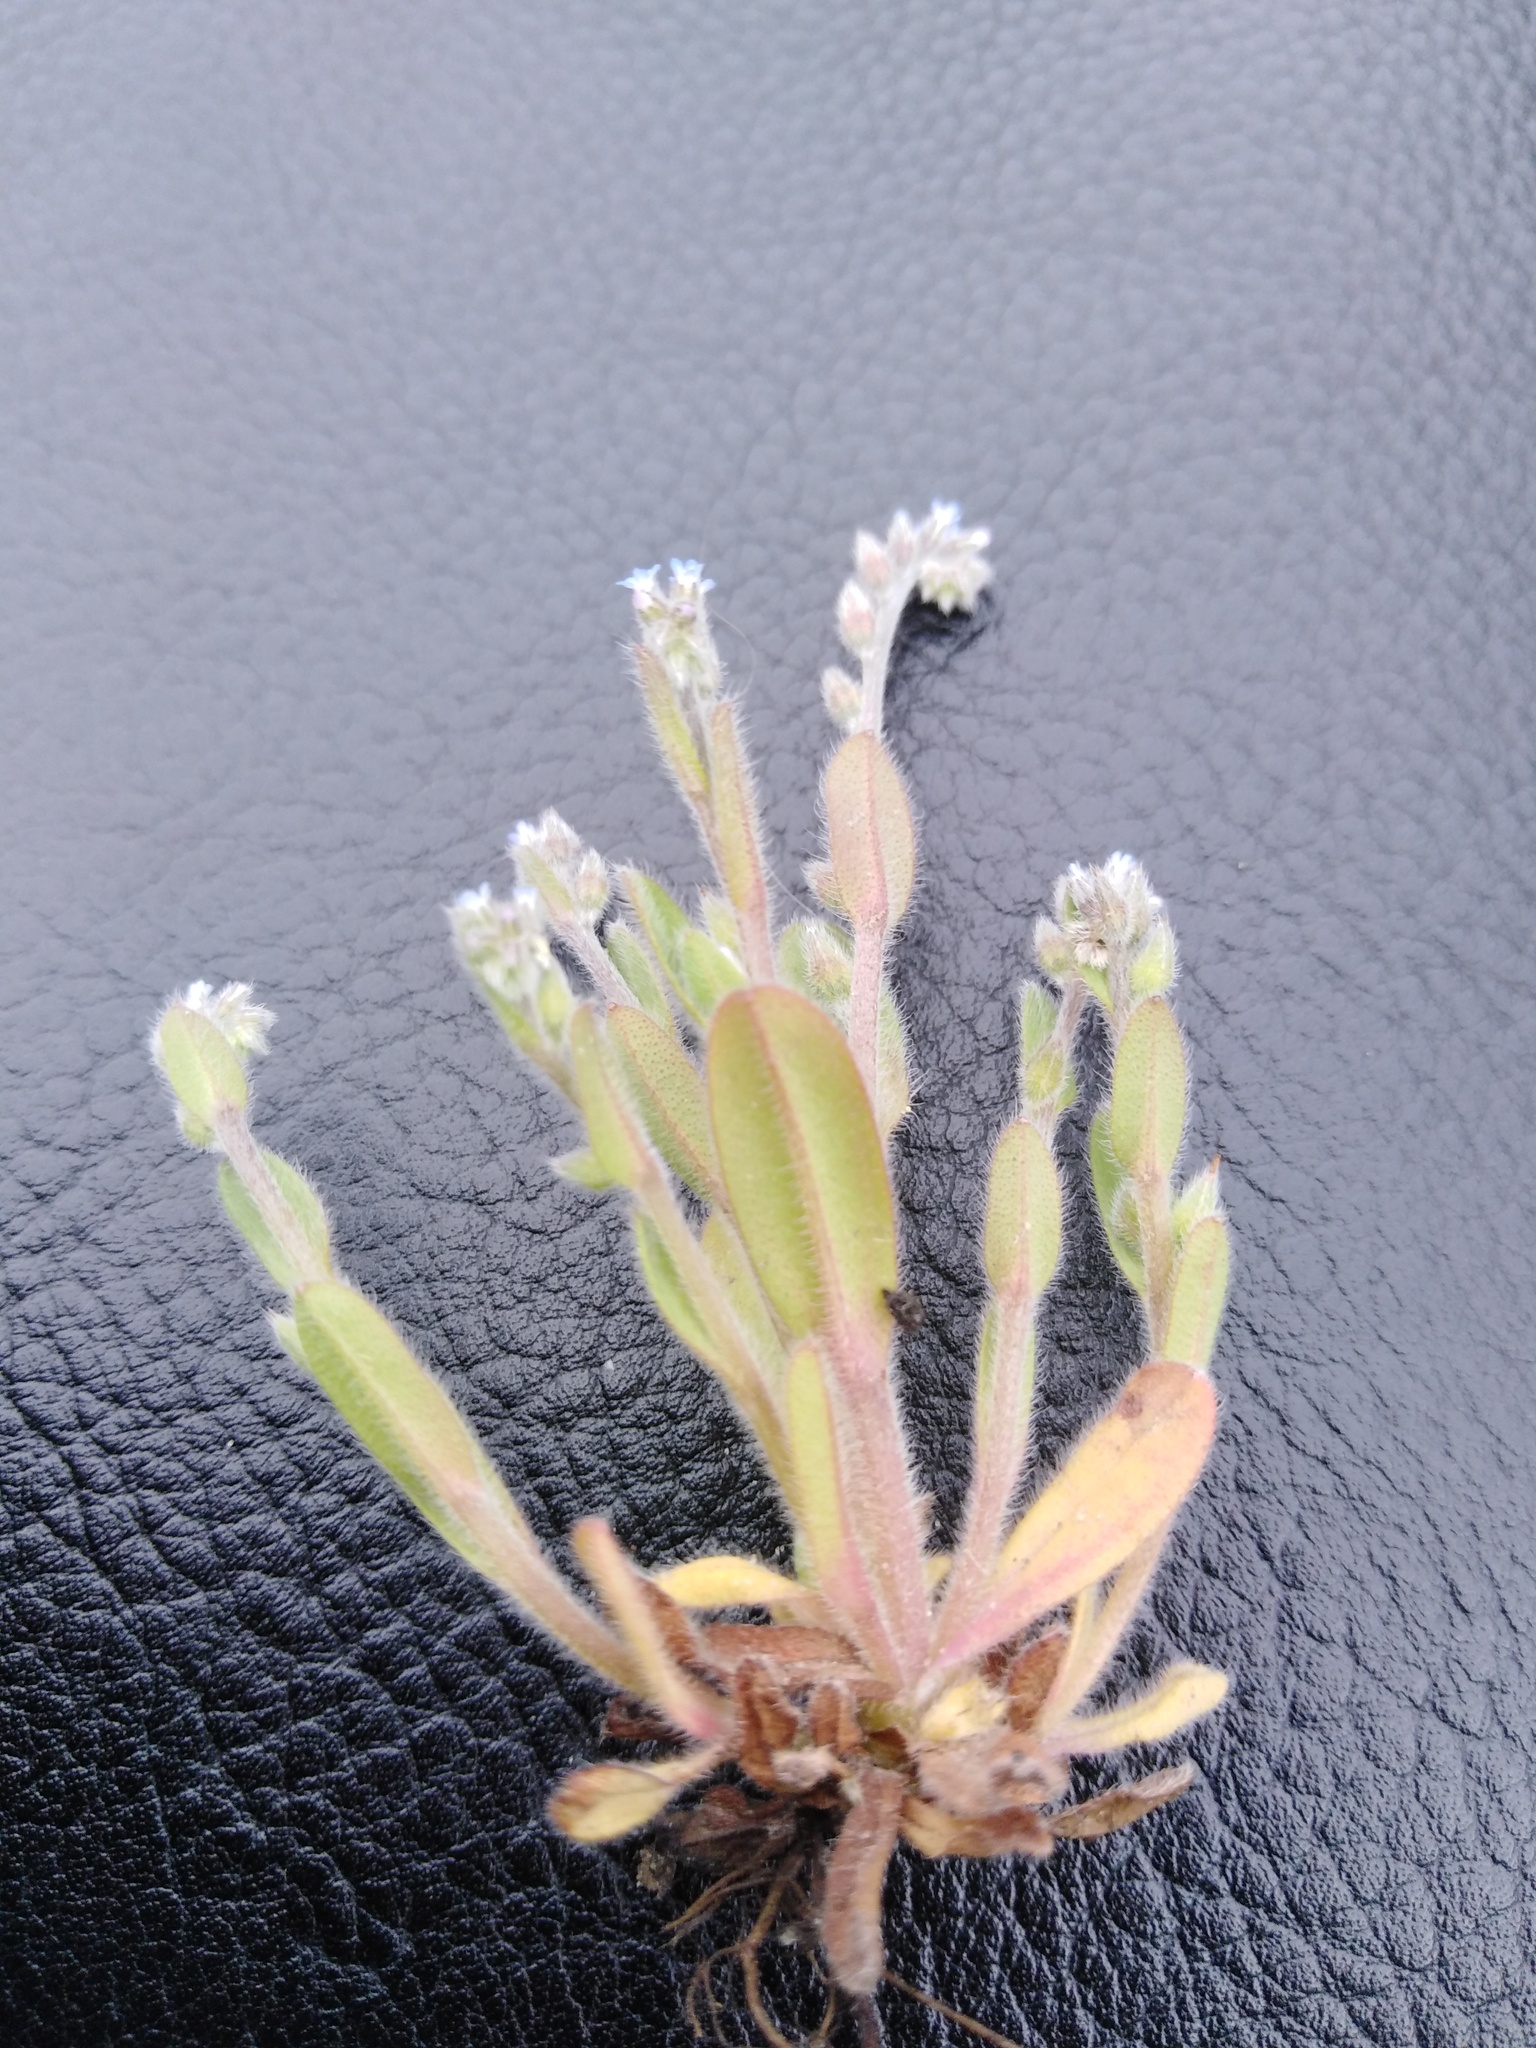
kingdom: Plantae
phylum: Tracheophyta
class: Magnoliopsida
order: Boraginales
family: Boraginaceae
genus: Myosotis
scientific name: Myosotis stricta
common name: Strict forget-me-not
